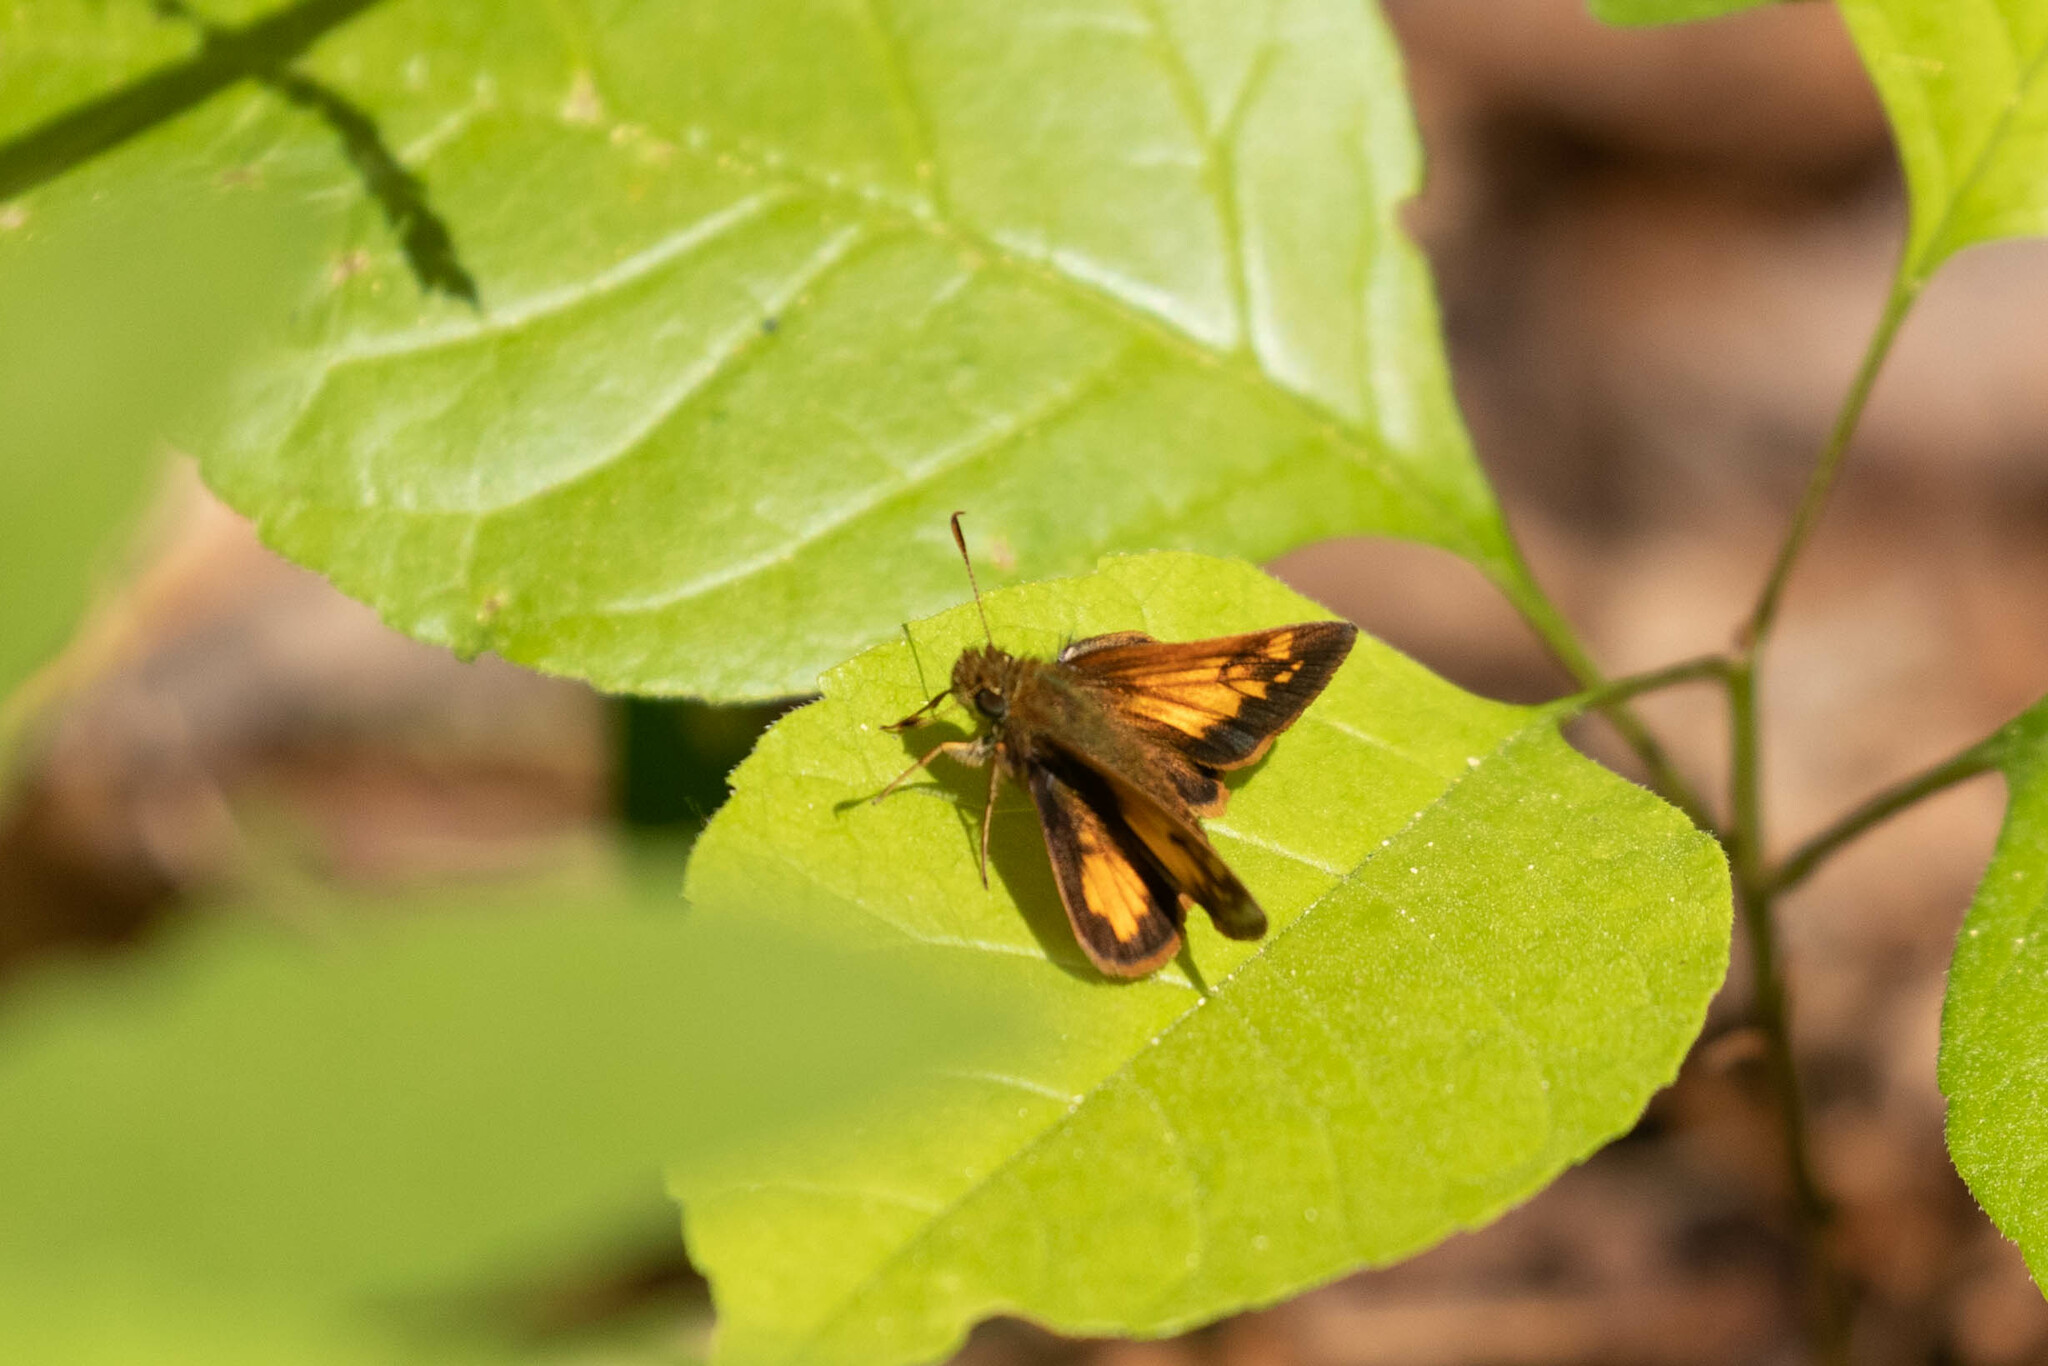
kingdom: Animalia
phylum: Arthropoda
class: Insecta
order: Lepidoptera
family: Hesperiidae
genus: Lon
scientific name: Lon hobomok
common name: Hobomok skipper
